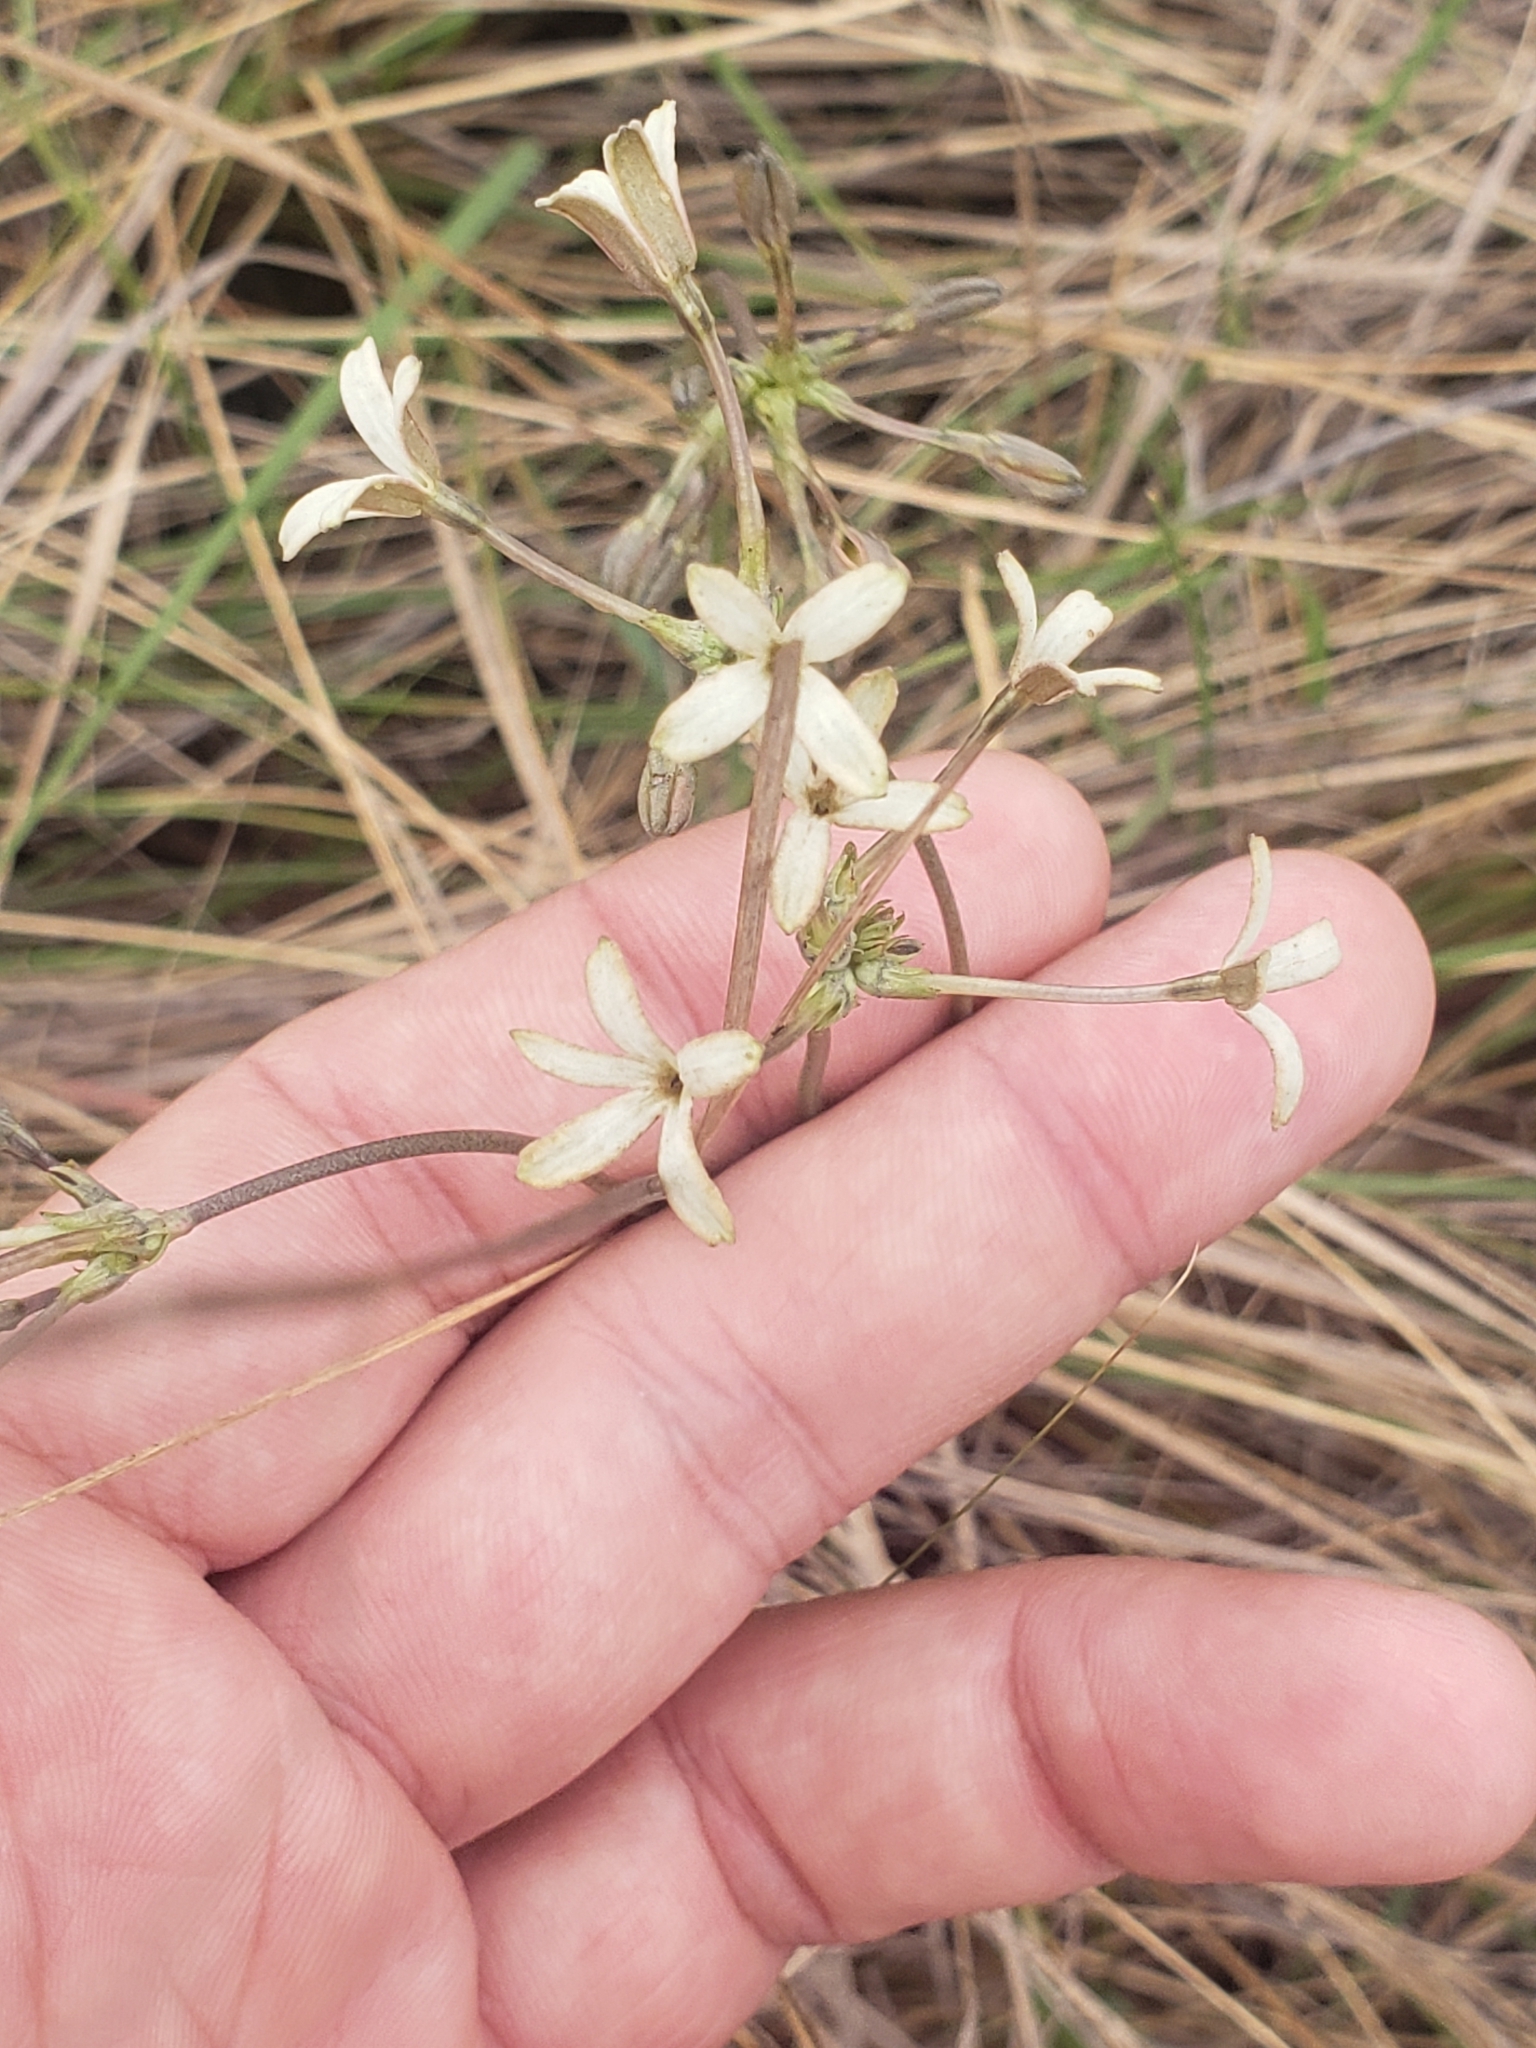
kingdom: Plantae
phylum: Tracheophyta
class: Magnoliopsida
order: Gentianales
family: Rubiaceae
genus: Kohautia
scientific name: Kohautia amatymbica
